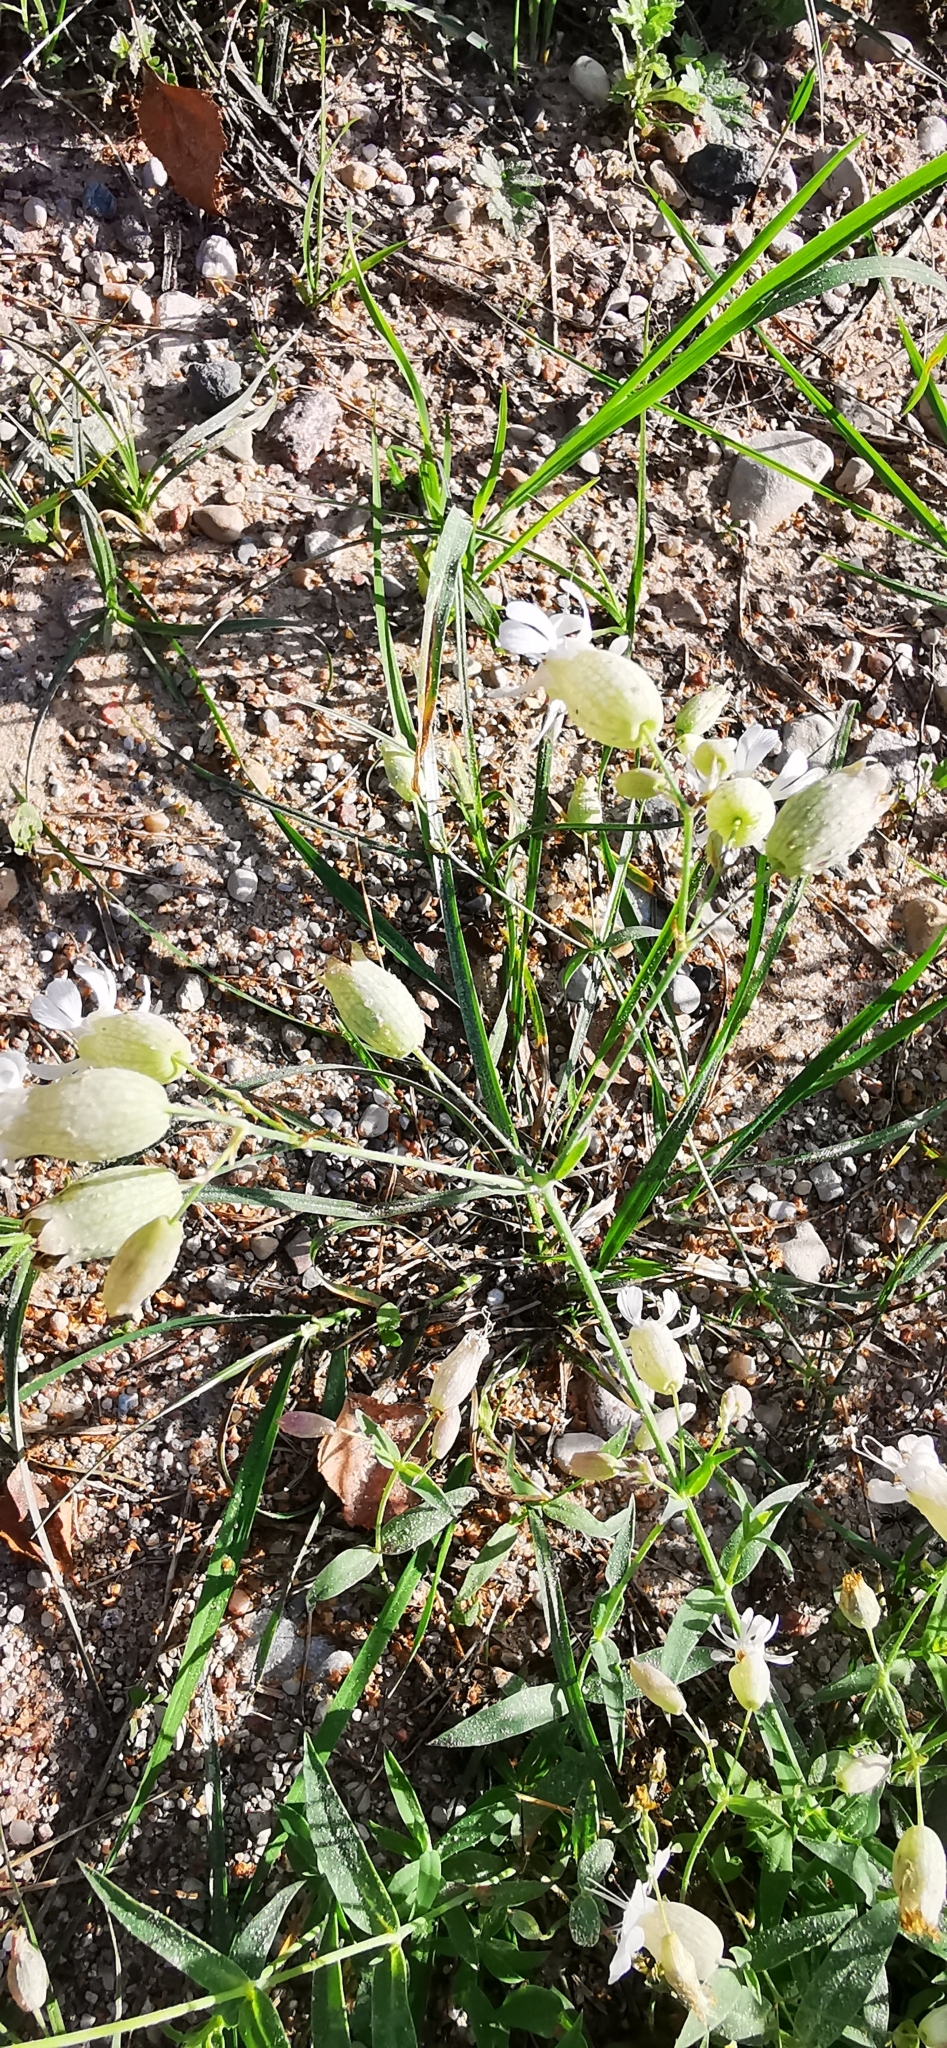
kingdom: Plantae
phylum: Tracheophyta
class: Magnoliopsida
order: Caryophyllales
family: Caryophyllaceae
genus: Silene
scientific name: Silene vulgaris
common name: Bladder campion
